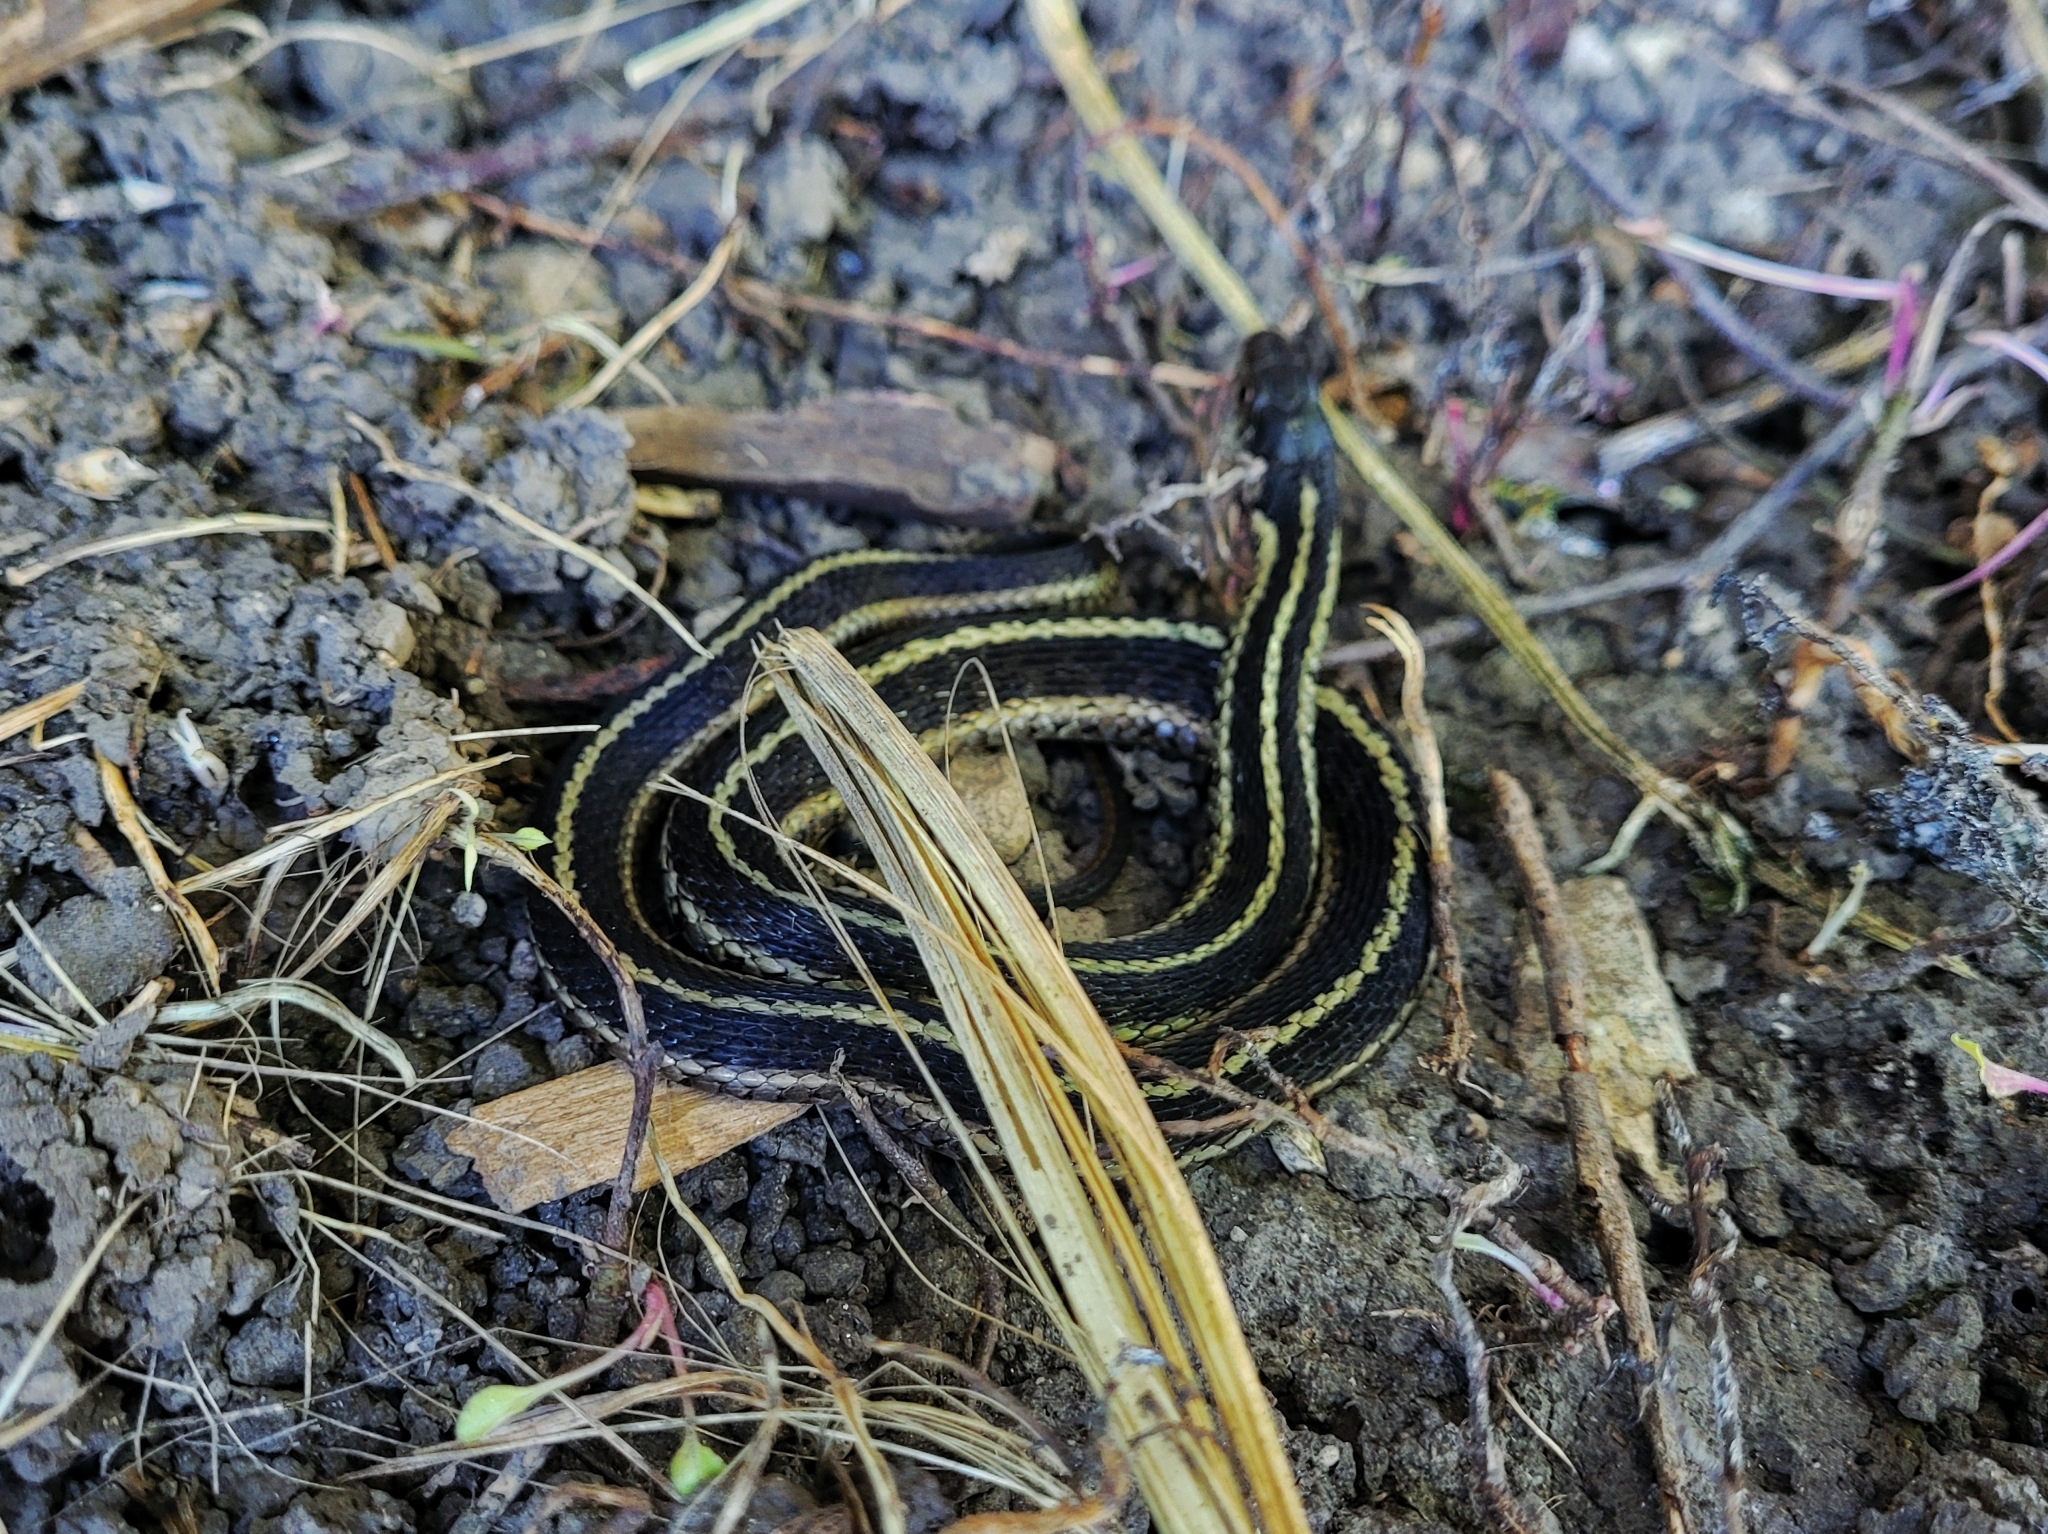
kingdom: Animalia
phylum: Chordata
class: Squamata
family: Colubridae
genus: Thamnophis
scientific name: Thamnophis sirtalis
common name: Common garter snake
